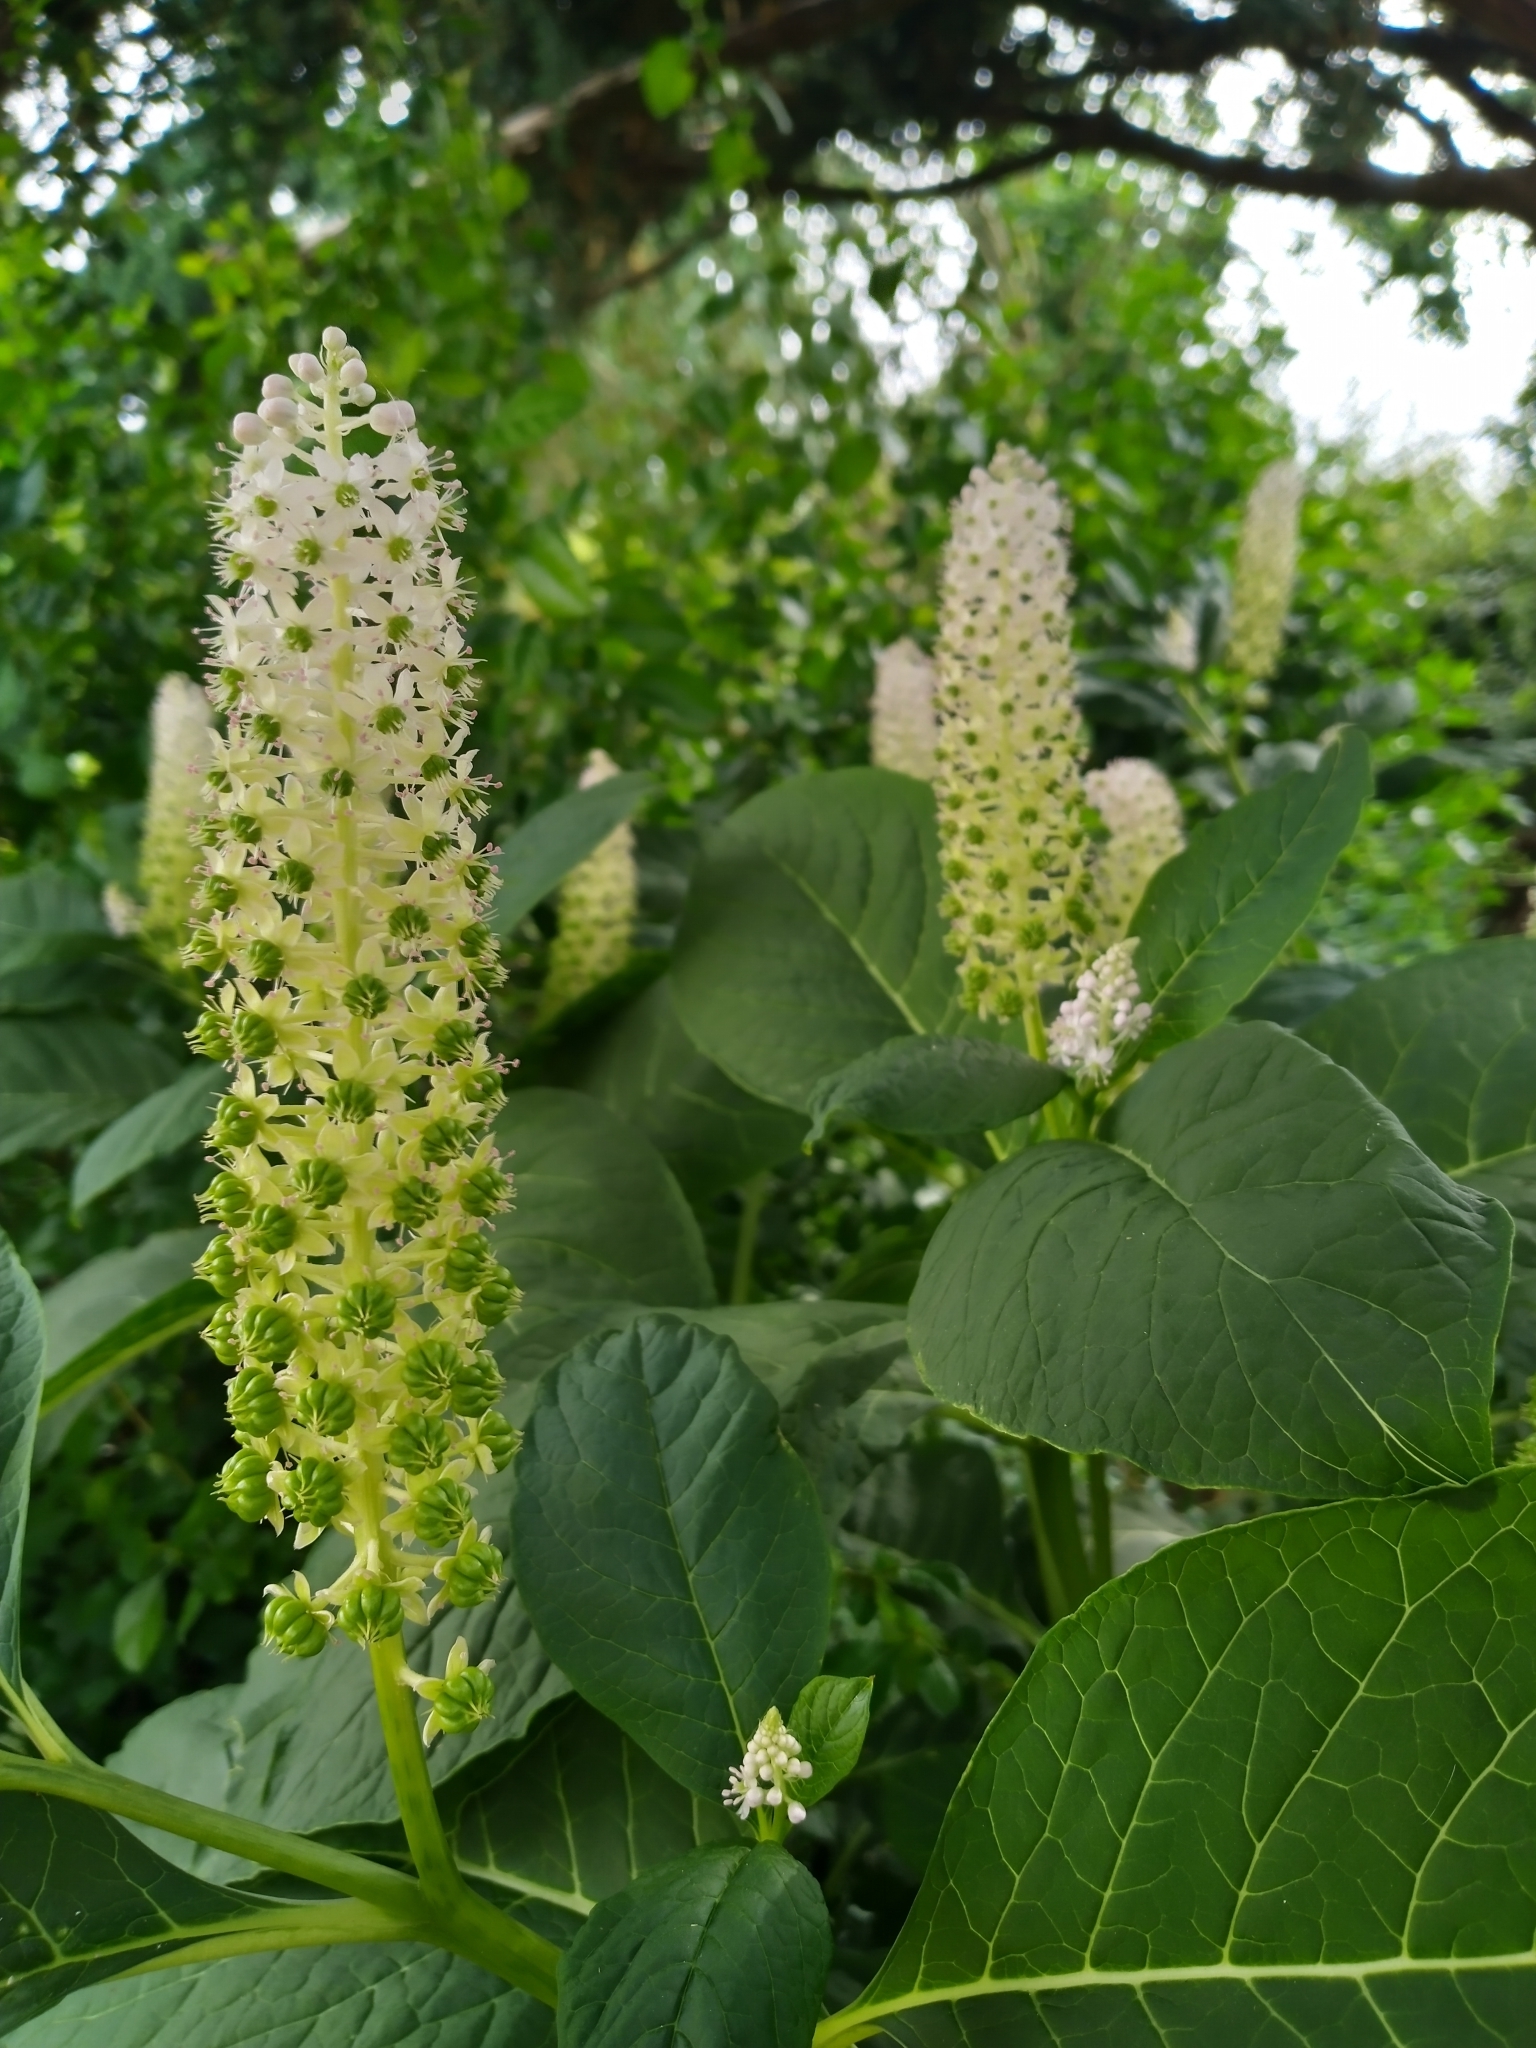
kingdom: Plantae
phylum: Tracheophyta
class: Magnoliopsida
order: Caryophyllales
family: Phytolaccaceae
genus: Phytolacca
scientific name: Phytolacca acinosa
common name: Indian pokeweed
